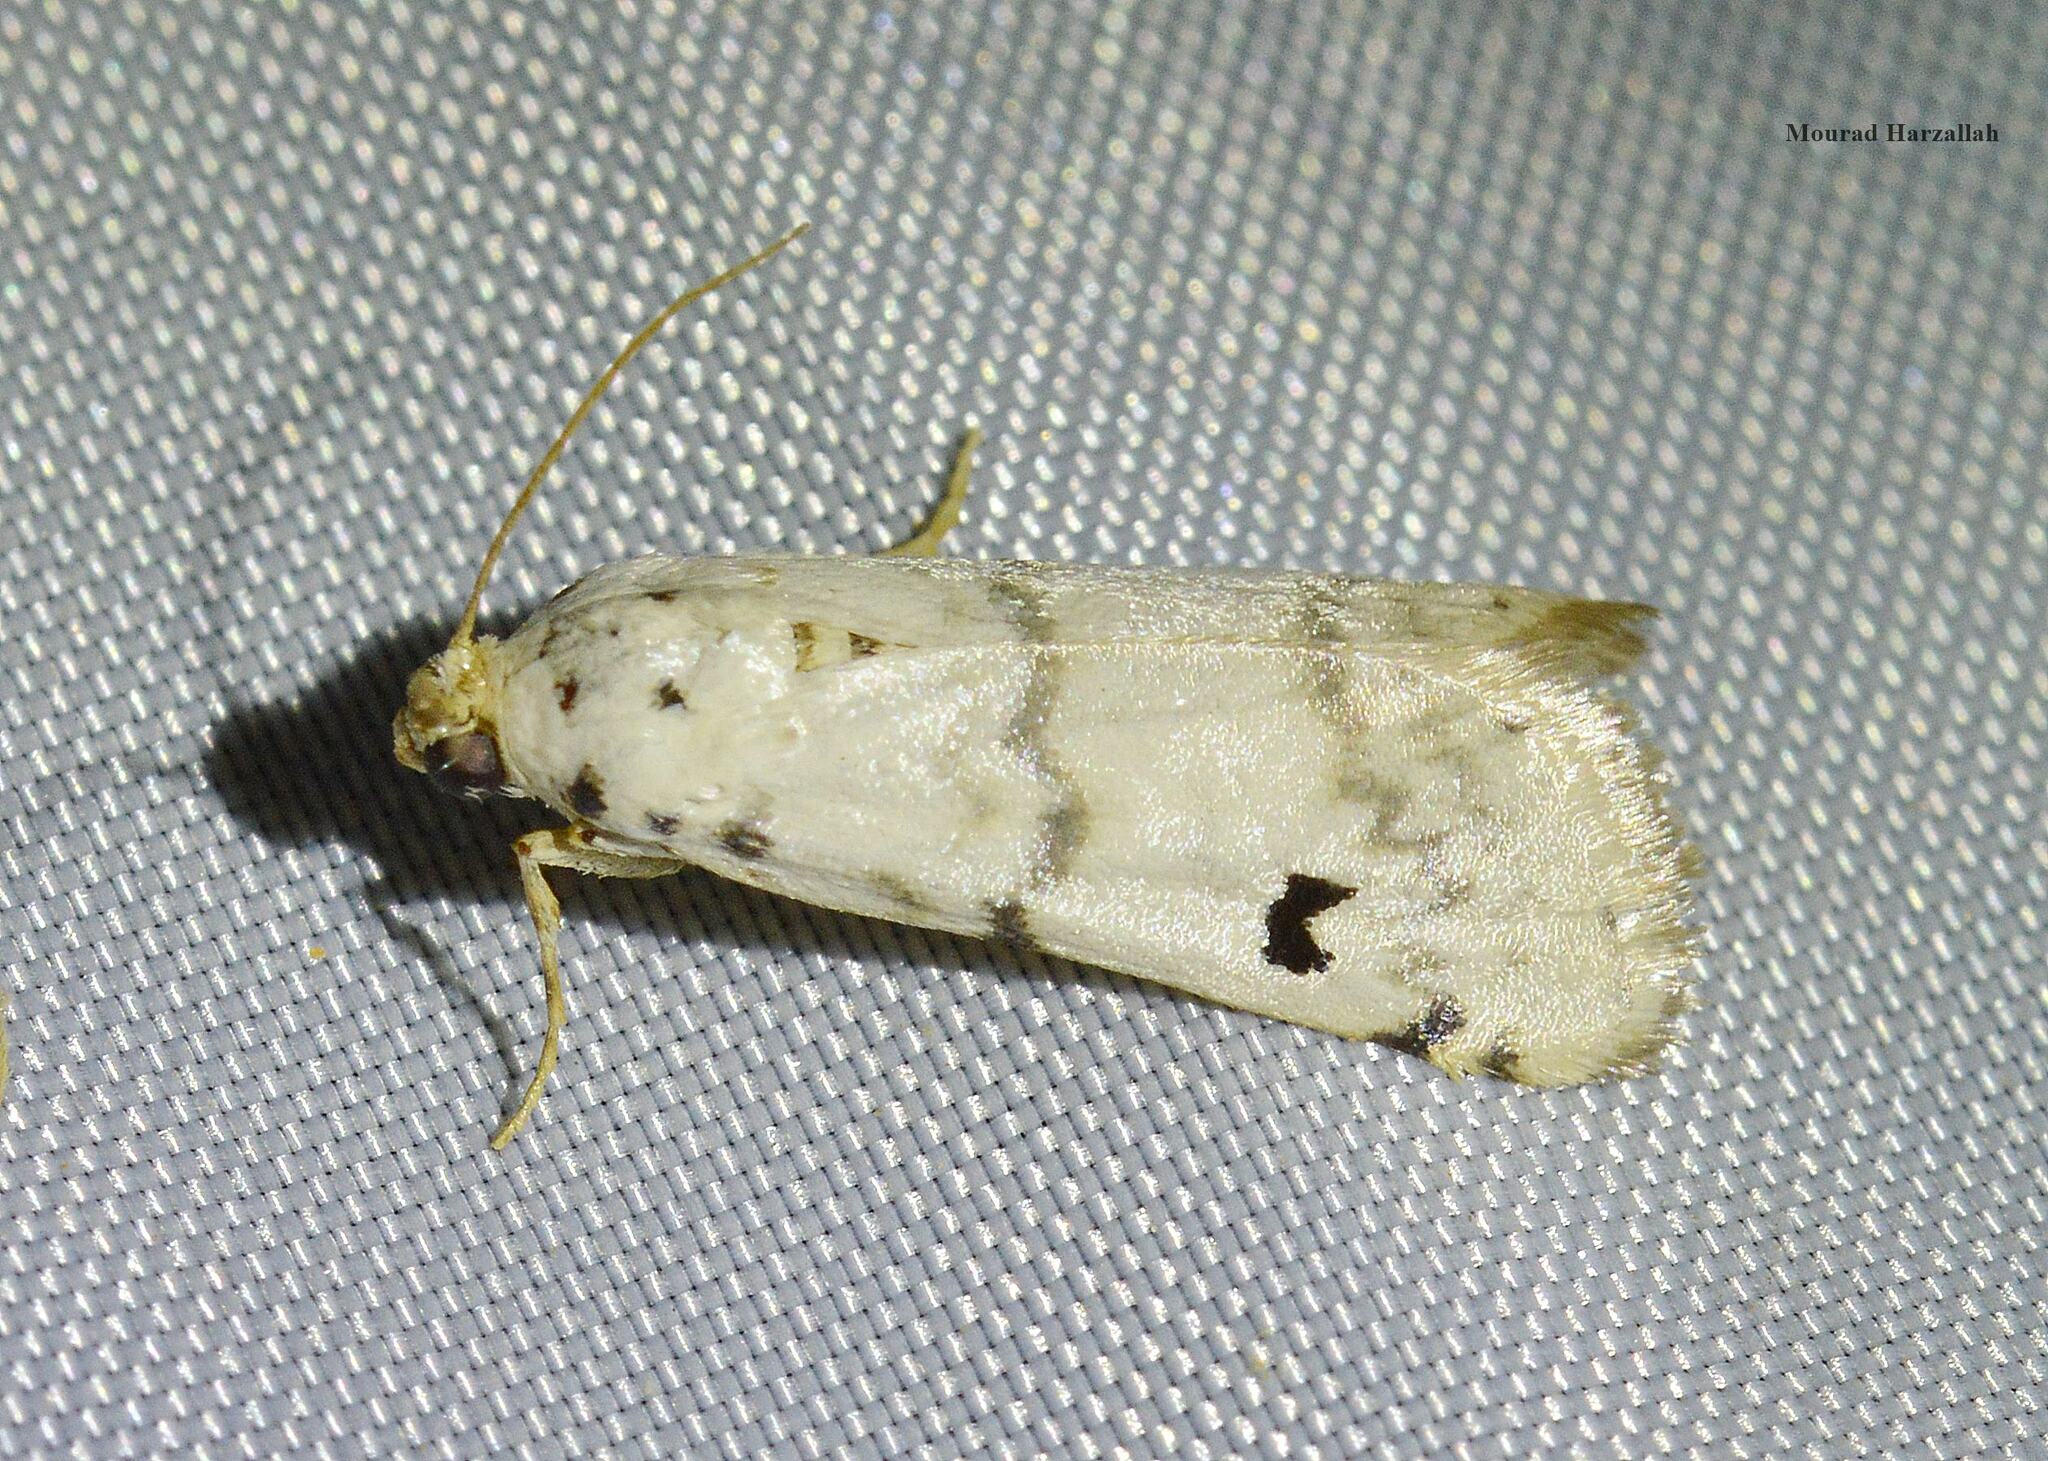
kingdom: Animalia
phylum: Arthropoda
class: Insecta
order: Lepidoptera
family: Pyralidae
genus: Euzophera
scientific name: Euzophera lunulella
